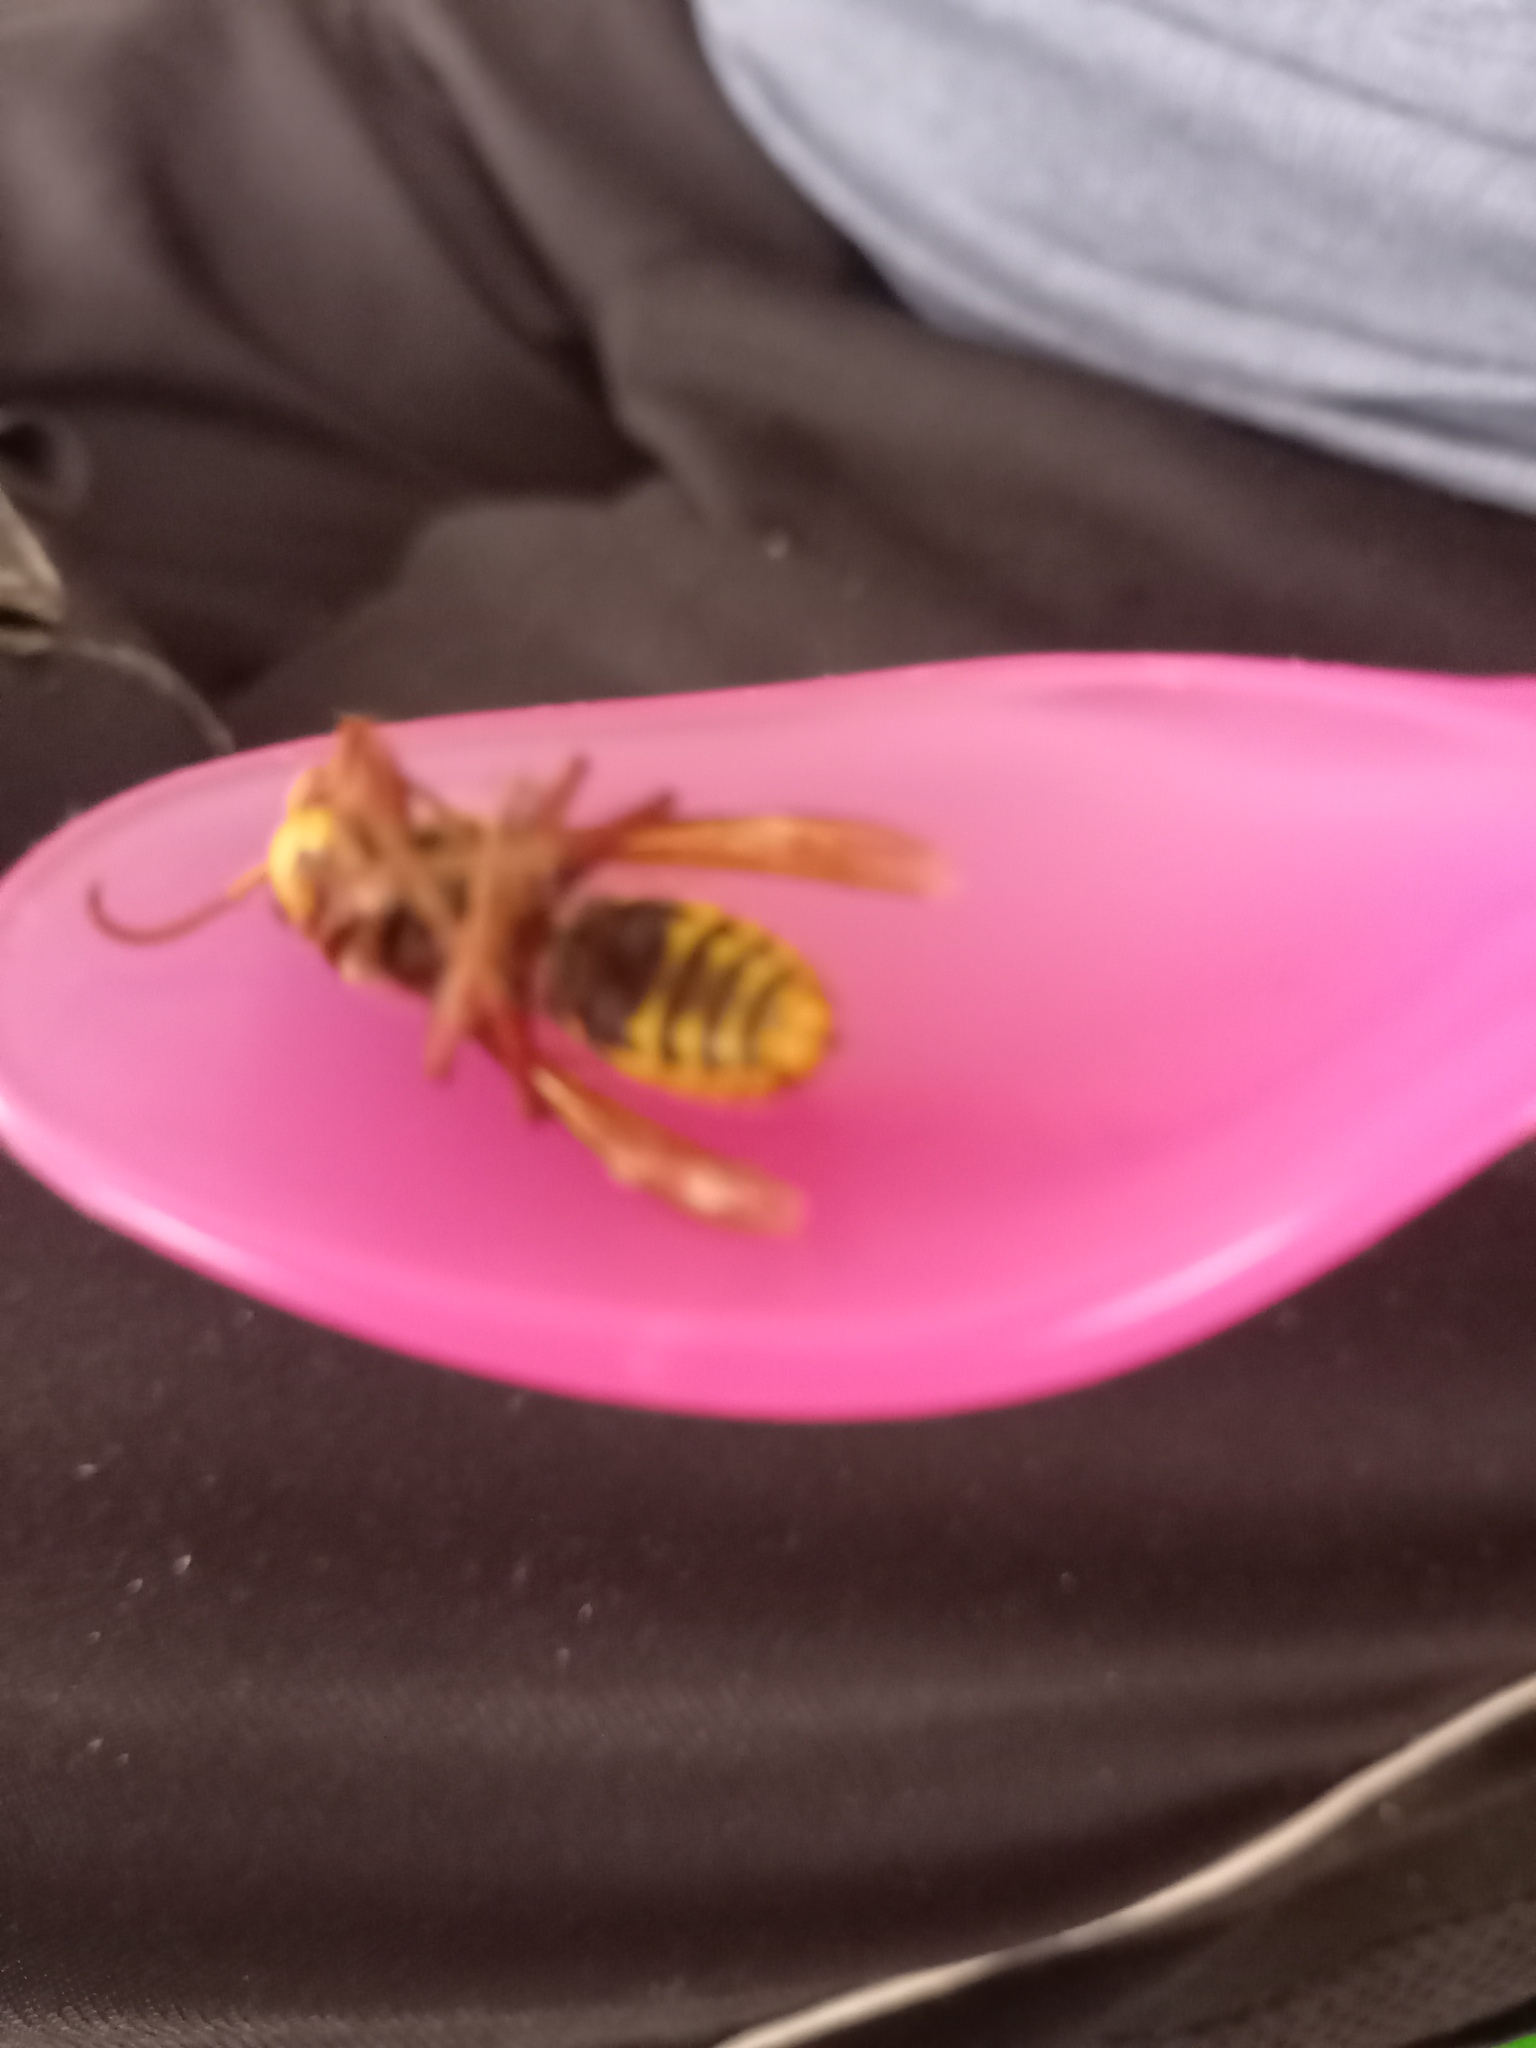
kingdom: Animalia
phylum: Arthropoda
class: Insecta
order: Hymenoptera
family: Vespidae
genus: Vespa
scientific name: Vespa crabro
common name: Hornet
